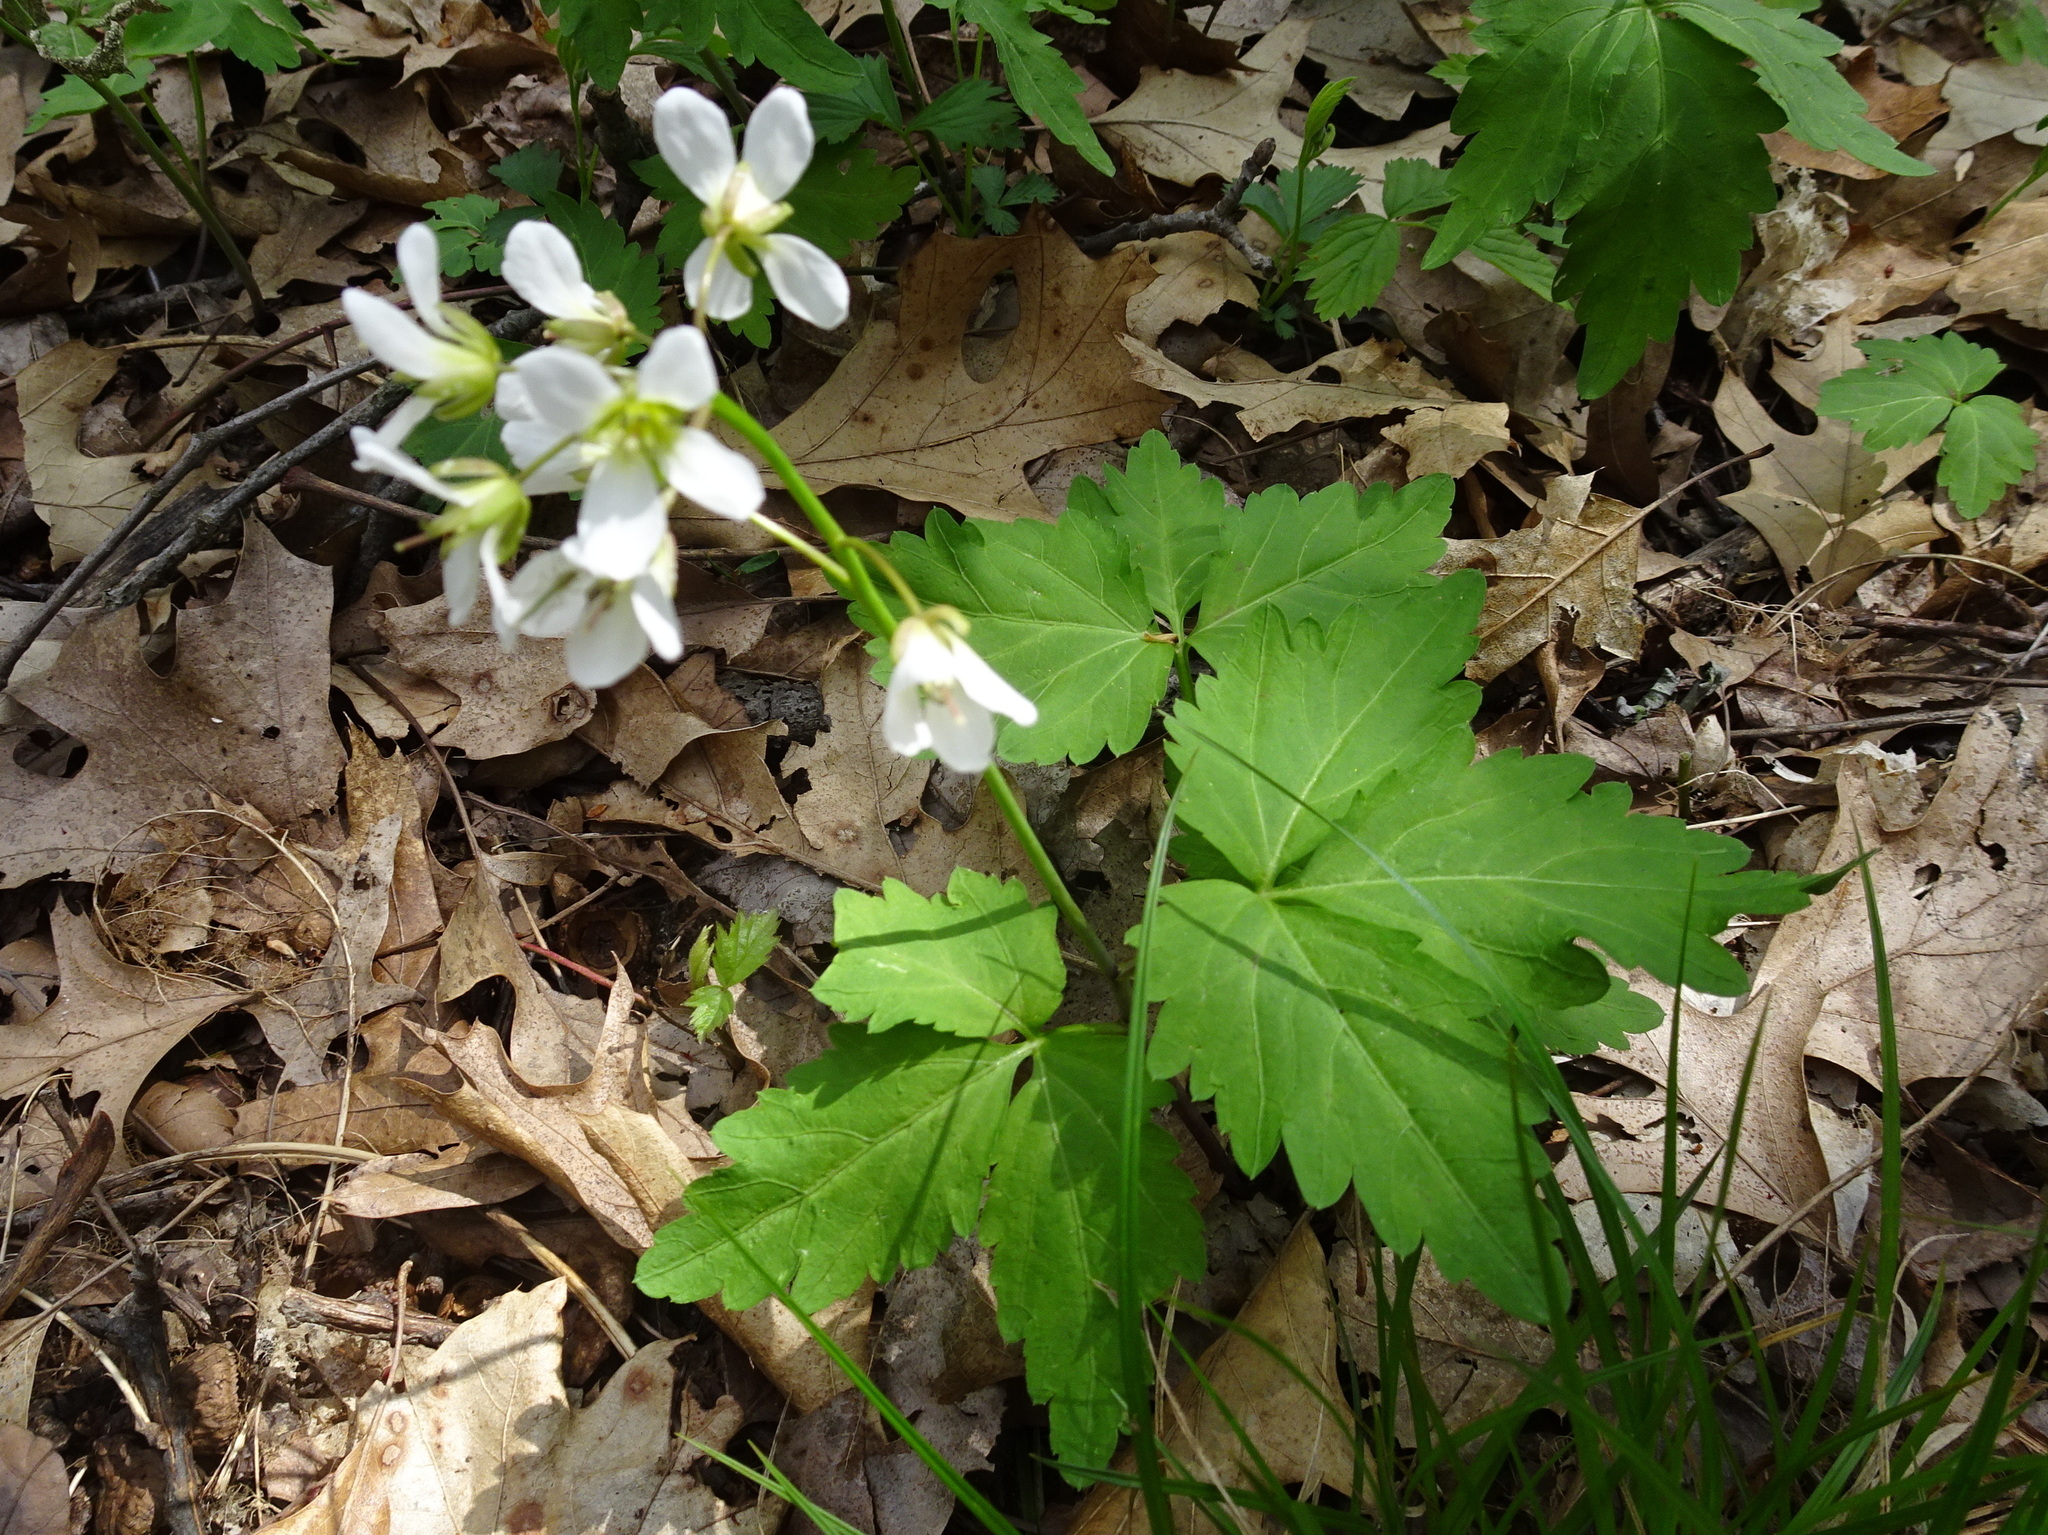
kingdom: Plantae
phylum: Tracheophyta
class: Magnoliopsida
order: Brassicales
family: Brassicaceae
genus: Cardamine
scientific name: Cardamine diphylla
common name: Broad-leaved toothwort
